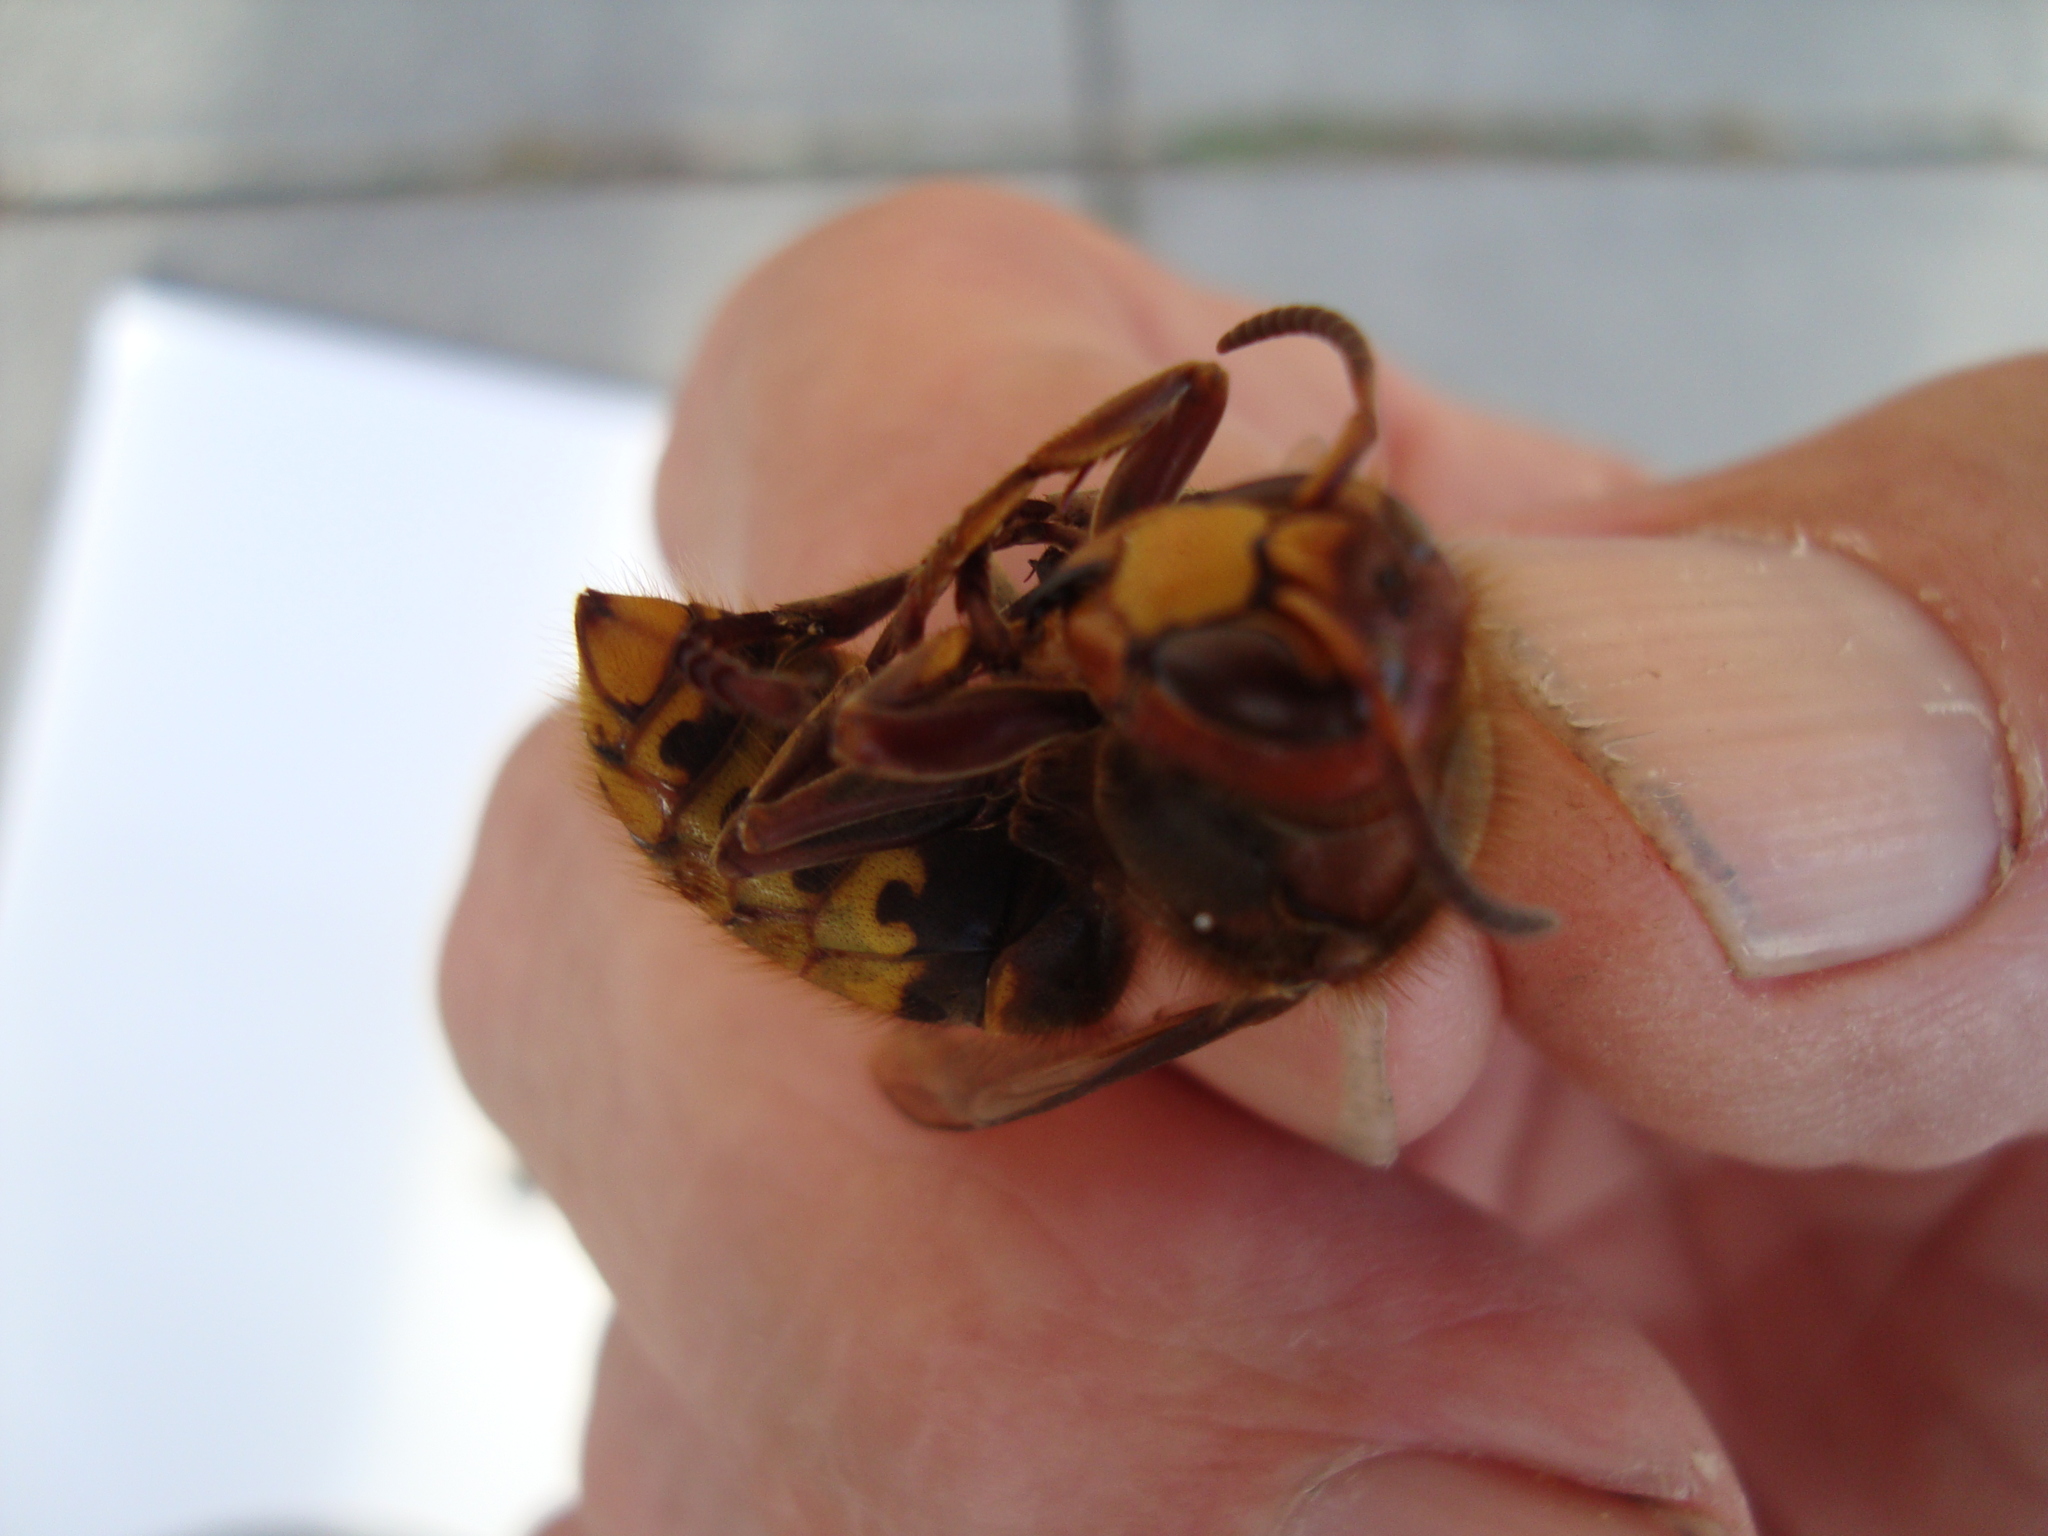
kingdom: Animalia
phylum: Arthropoda
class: Insecta
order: Hymenoptera
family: Vespidae
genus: Vespa
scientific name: Vespa crabro
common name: Hornet
